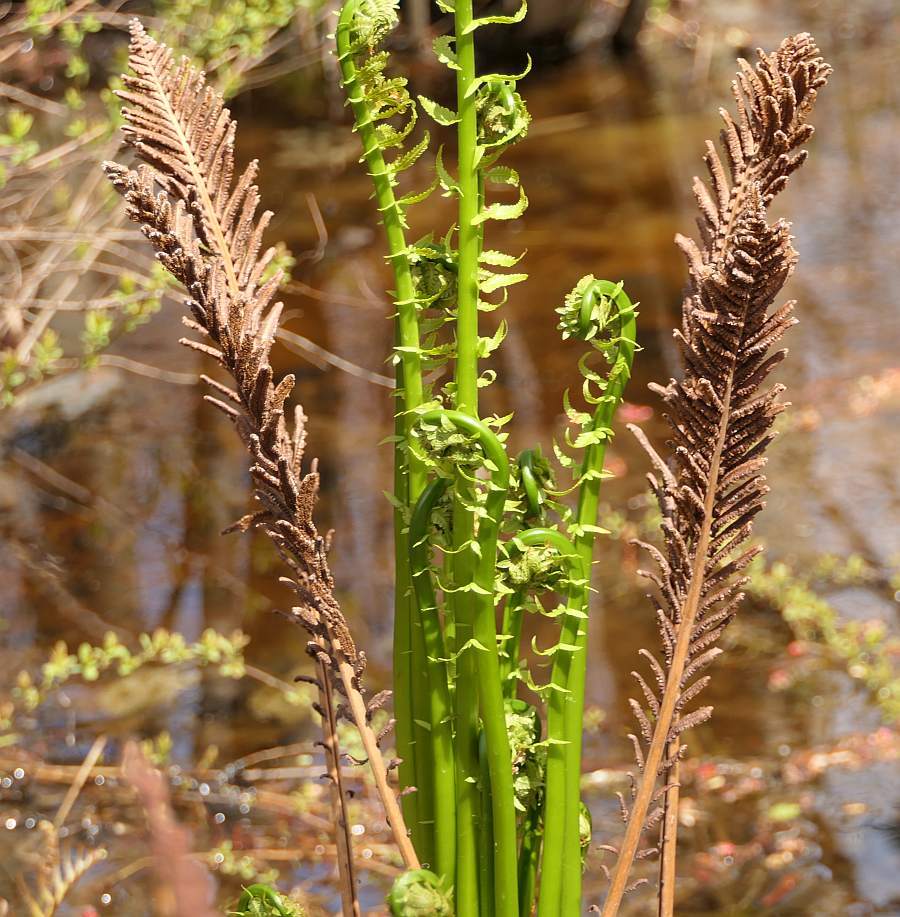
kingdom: Plantae
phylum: Tracheophyta
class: Polypodiopsida
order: Polypodiales
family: Onocleaceae
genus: Matteuccia
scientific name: Matteuccia struthiopteris
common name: Ostrich fern
